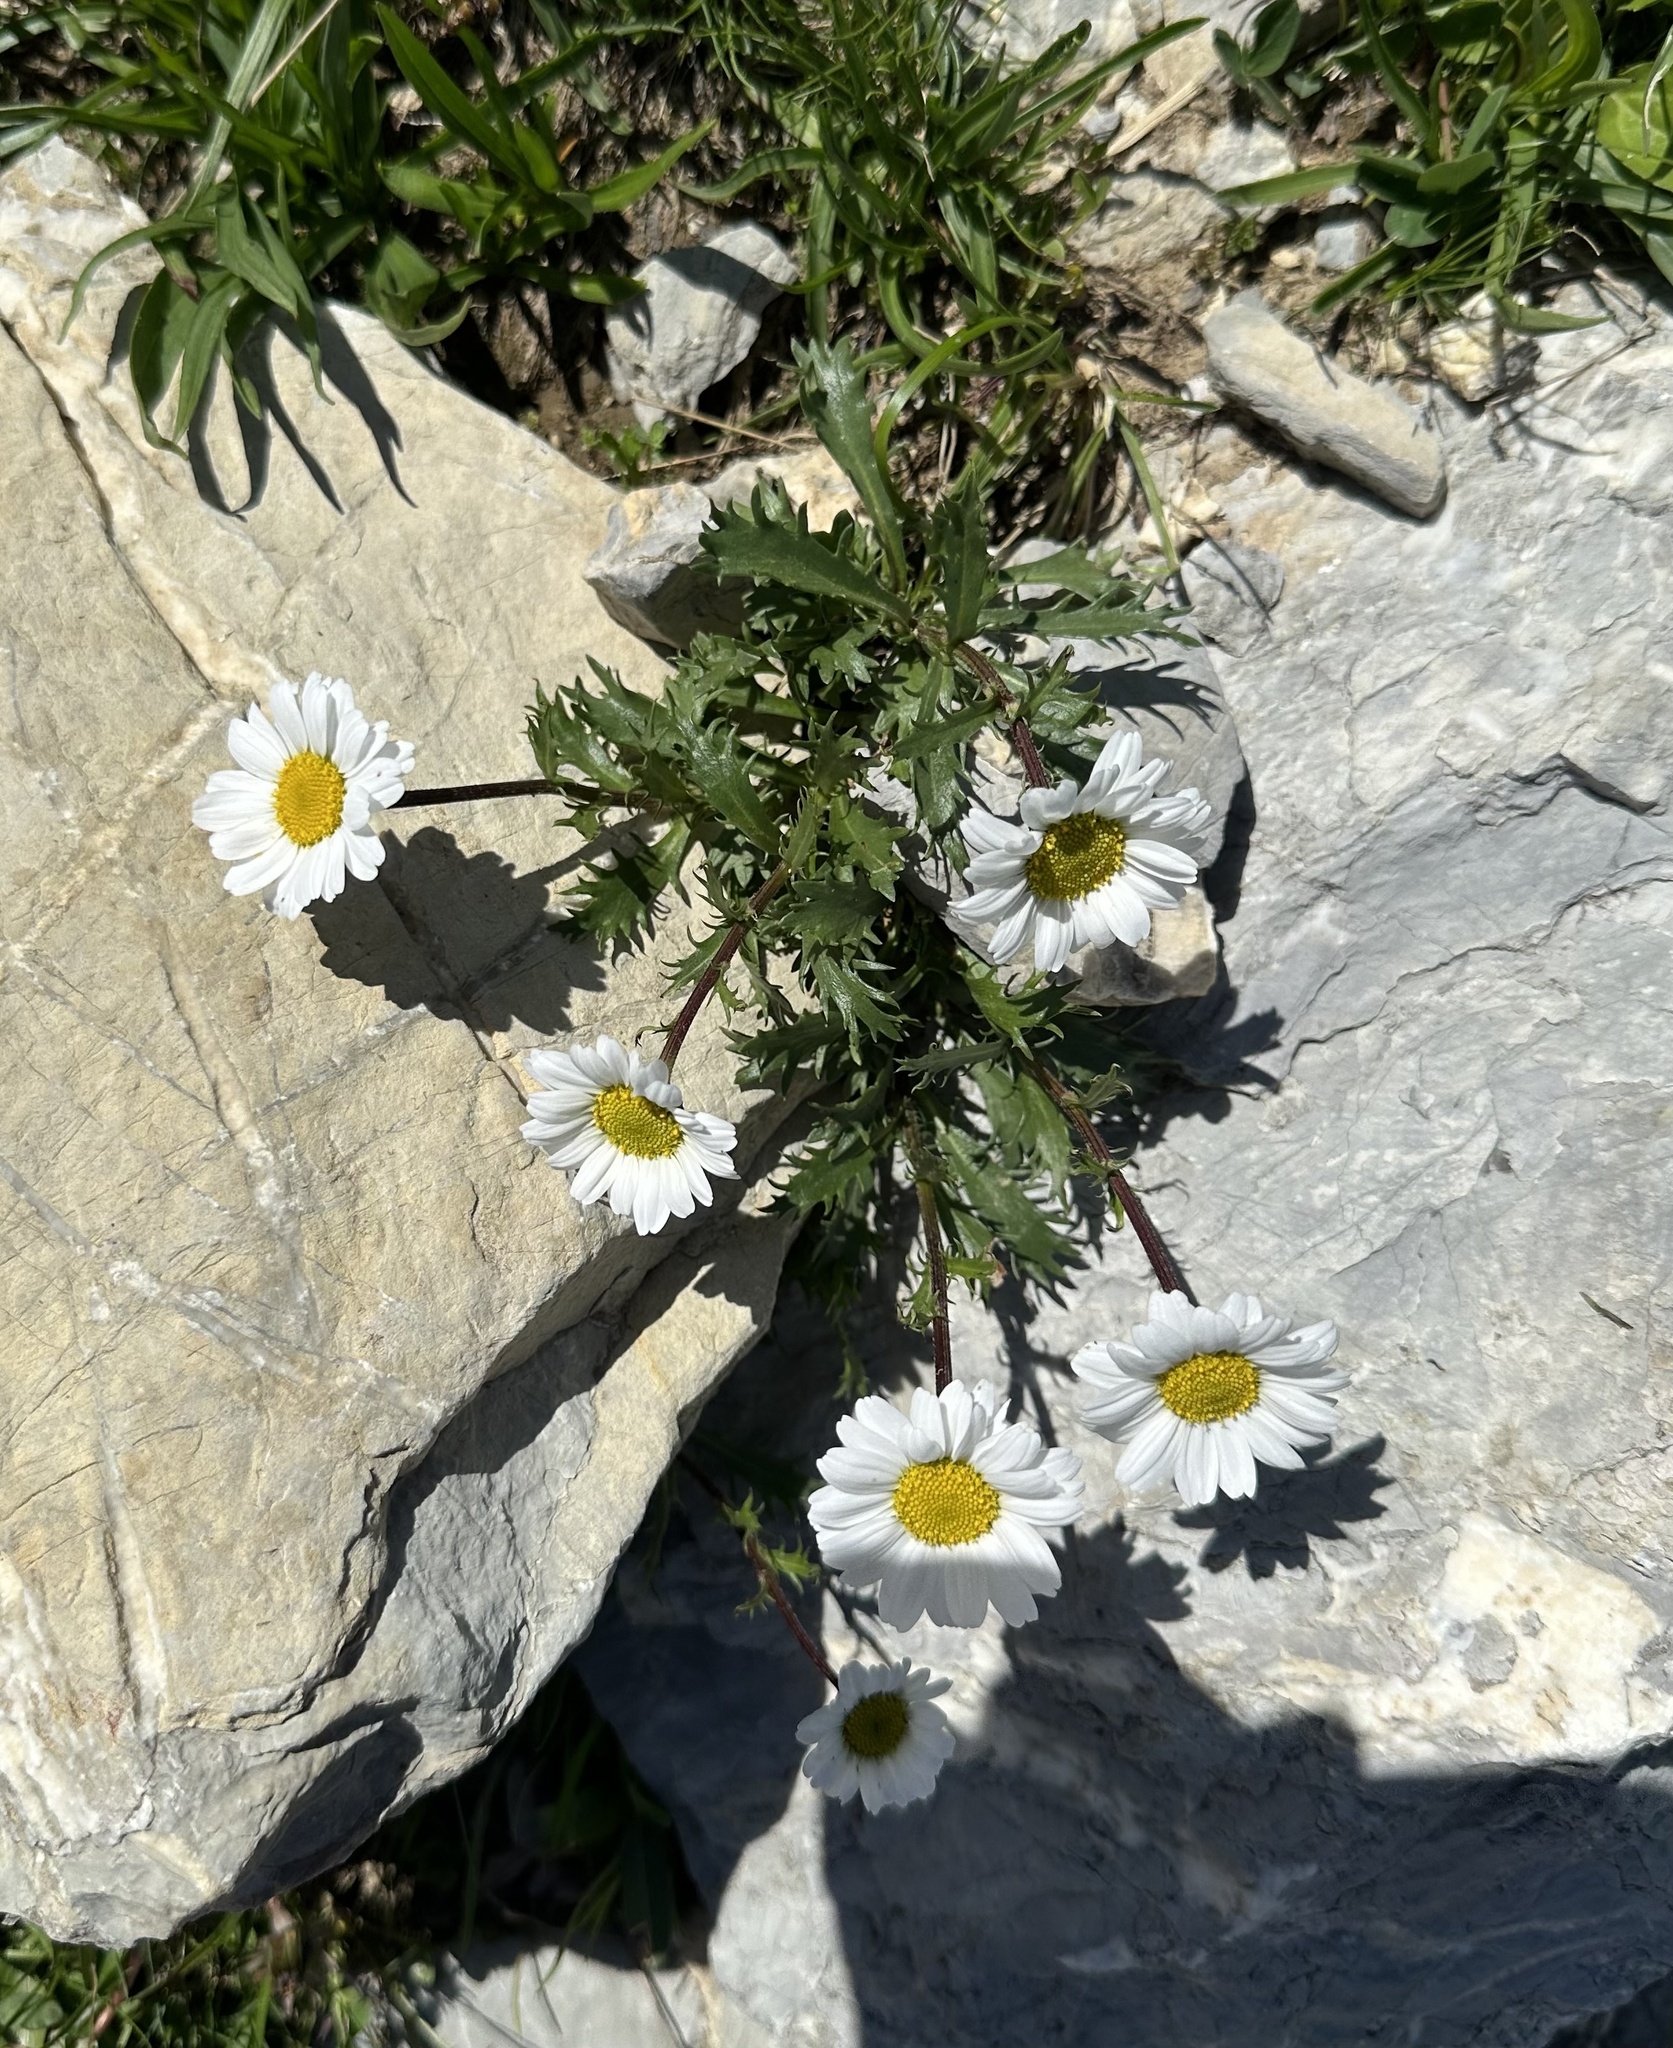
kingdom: Plantae
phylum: Tracheophyta
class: Magnoliopsida
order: Asterales
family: Asteraceae
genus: Leucanthemum
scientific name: Leucanthemum halleri
